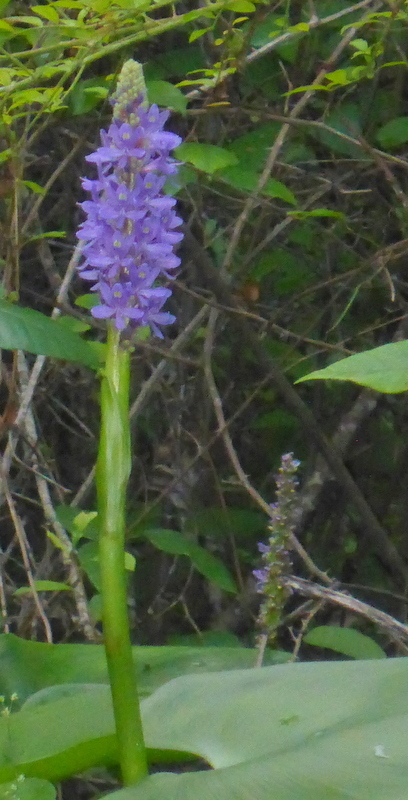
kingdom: Plantae
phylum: Tracheophyta
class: Liliopsida
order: Commelinales
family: Pontederiaceae
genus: Pontederia
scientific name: Pontederia cordata
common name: Pickerelweed
